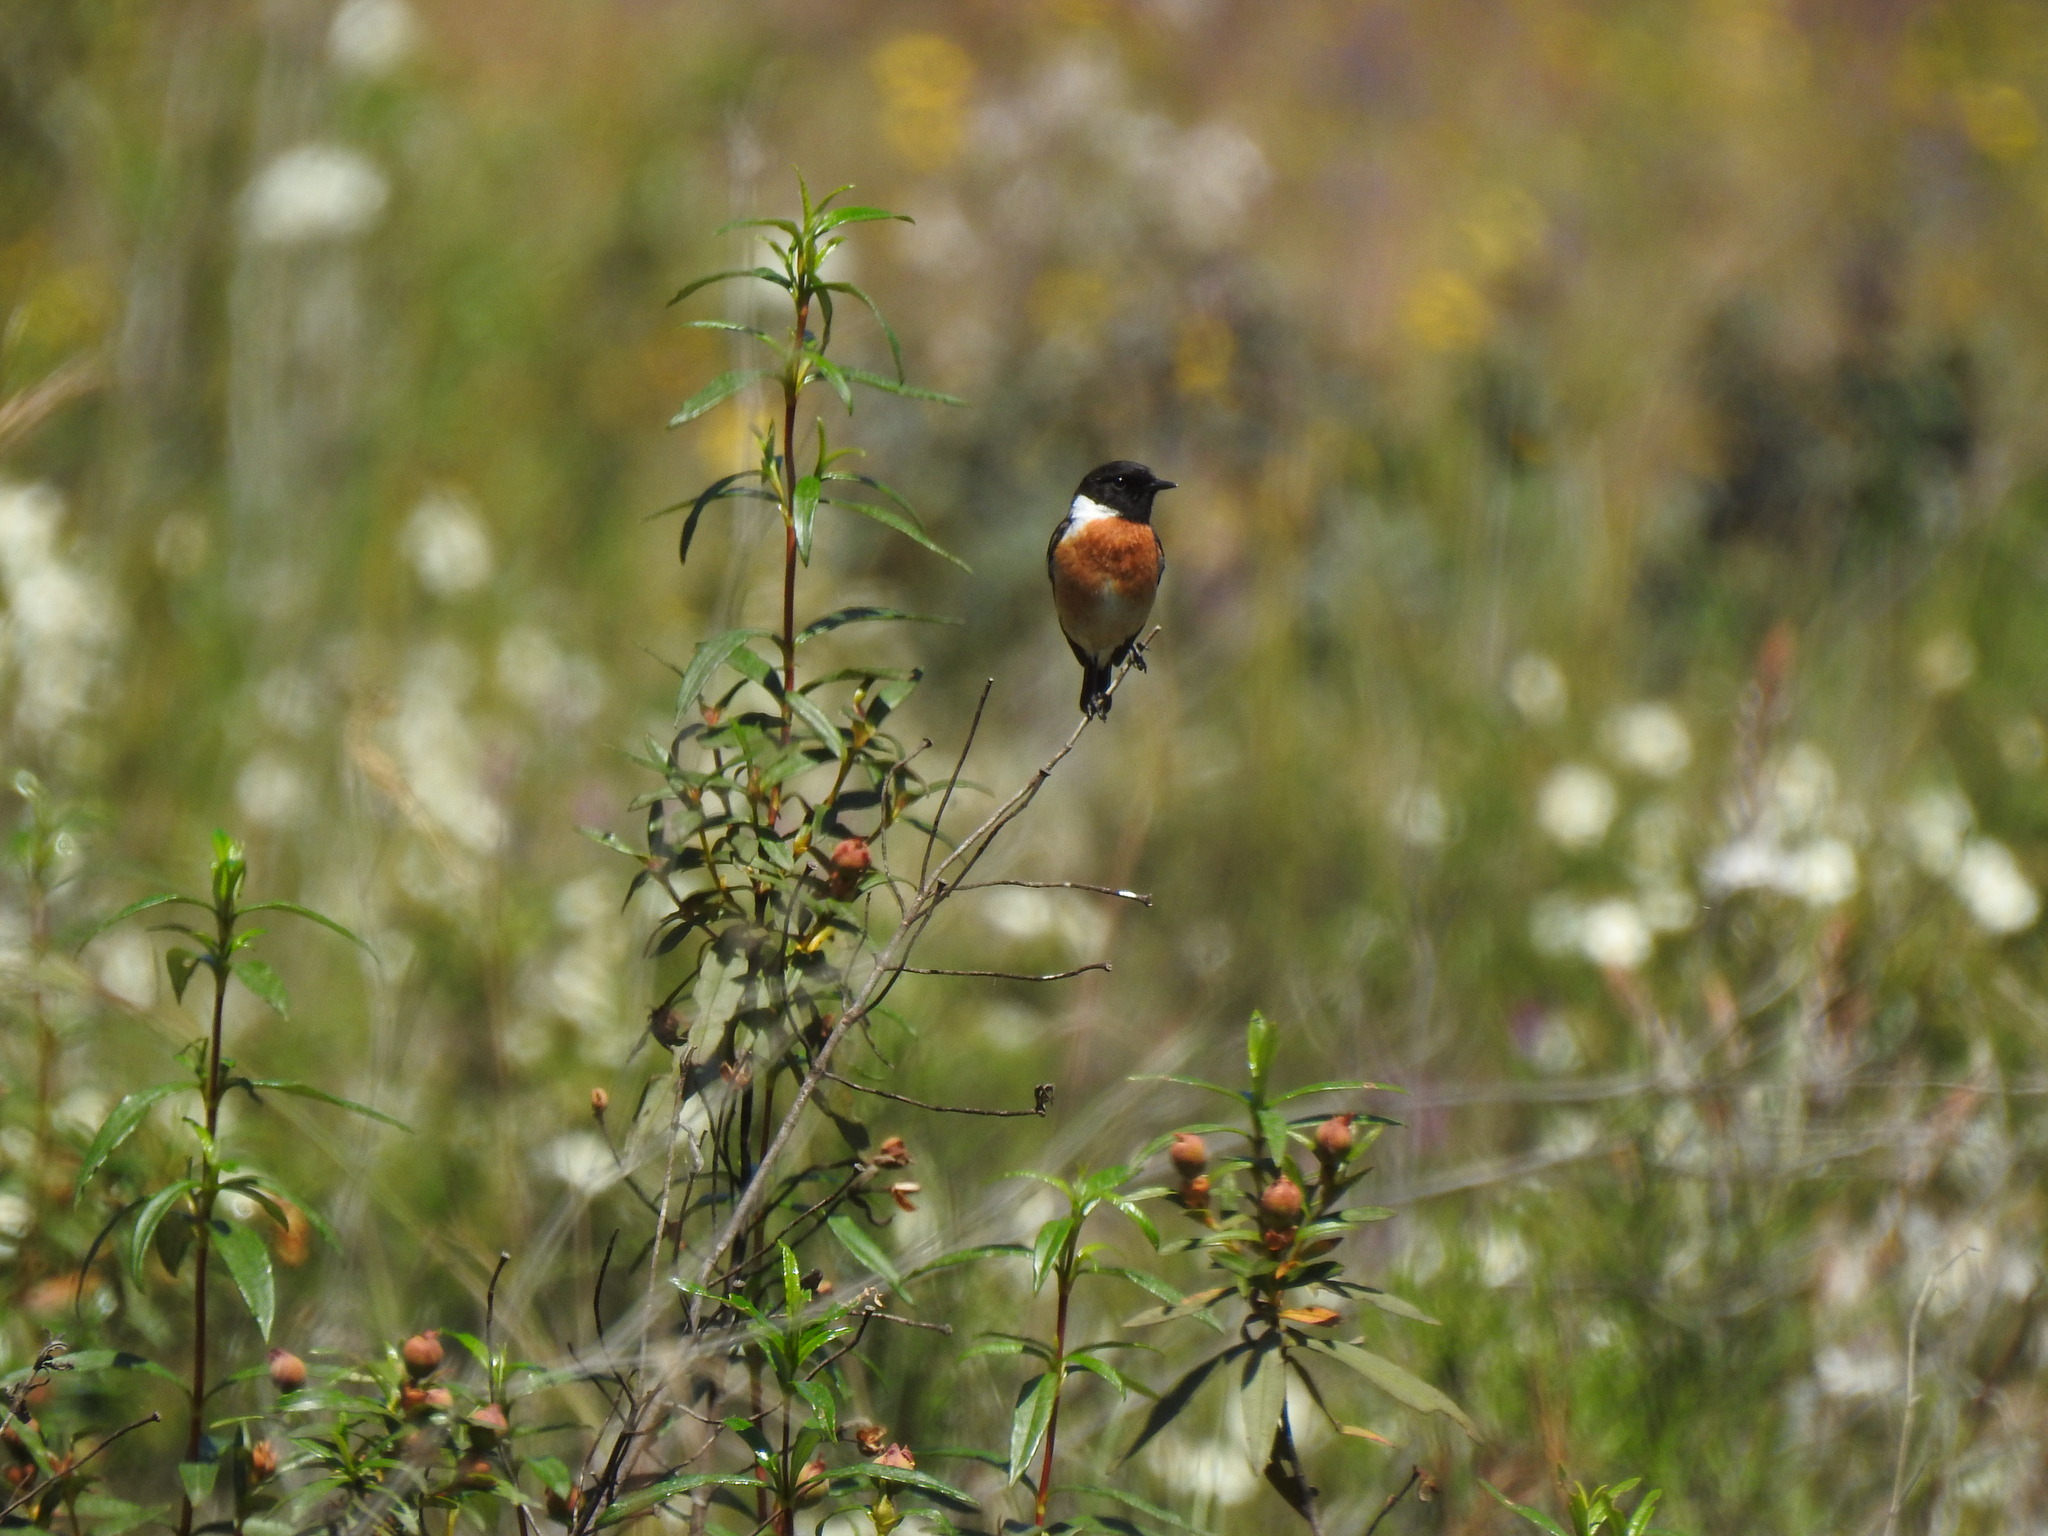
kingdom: Animalia
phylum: Chordata
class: Aves
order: Passeriformes
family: Muscicapidae
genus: Saxicola
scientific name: Saxicola rubicola
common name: European stonechat
